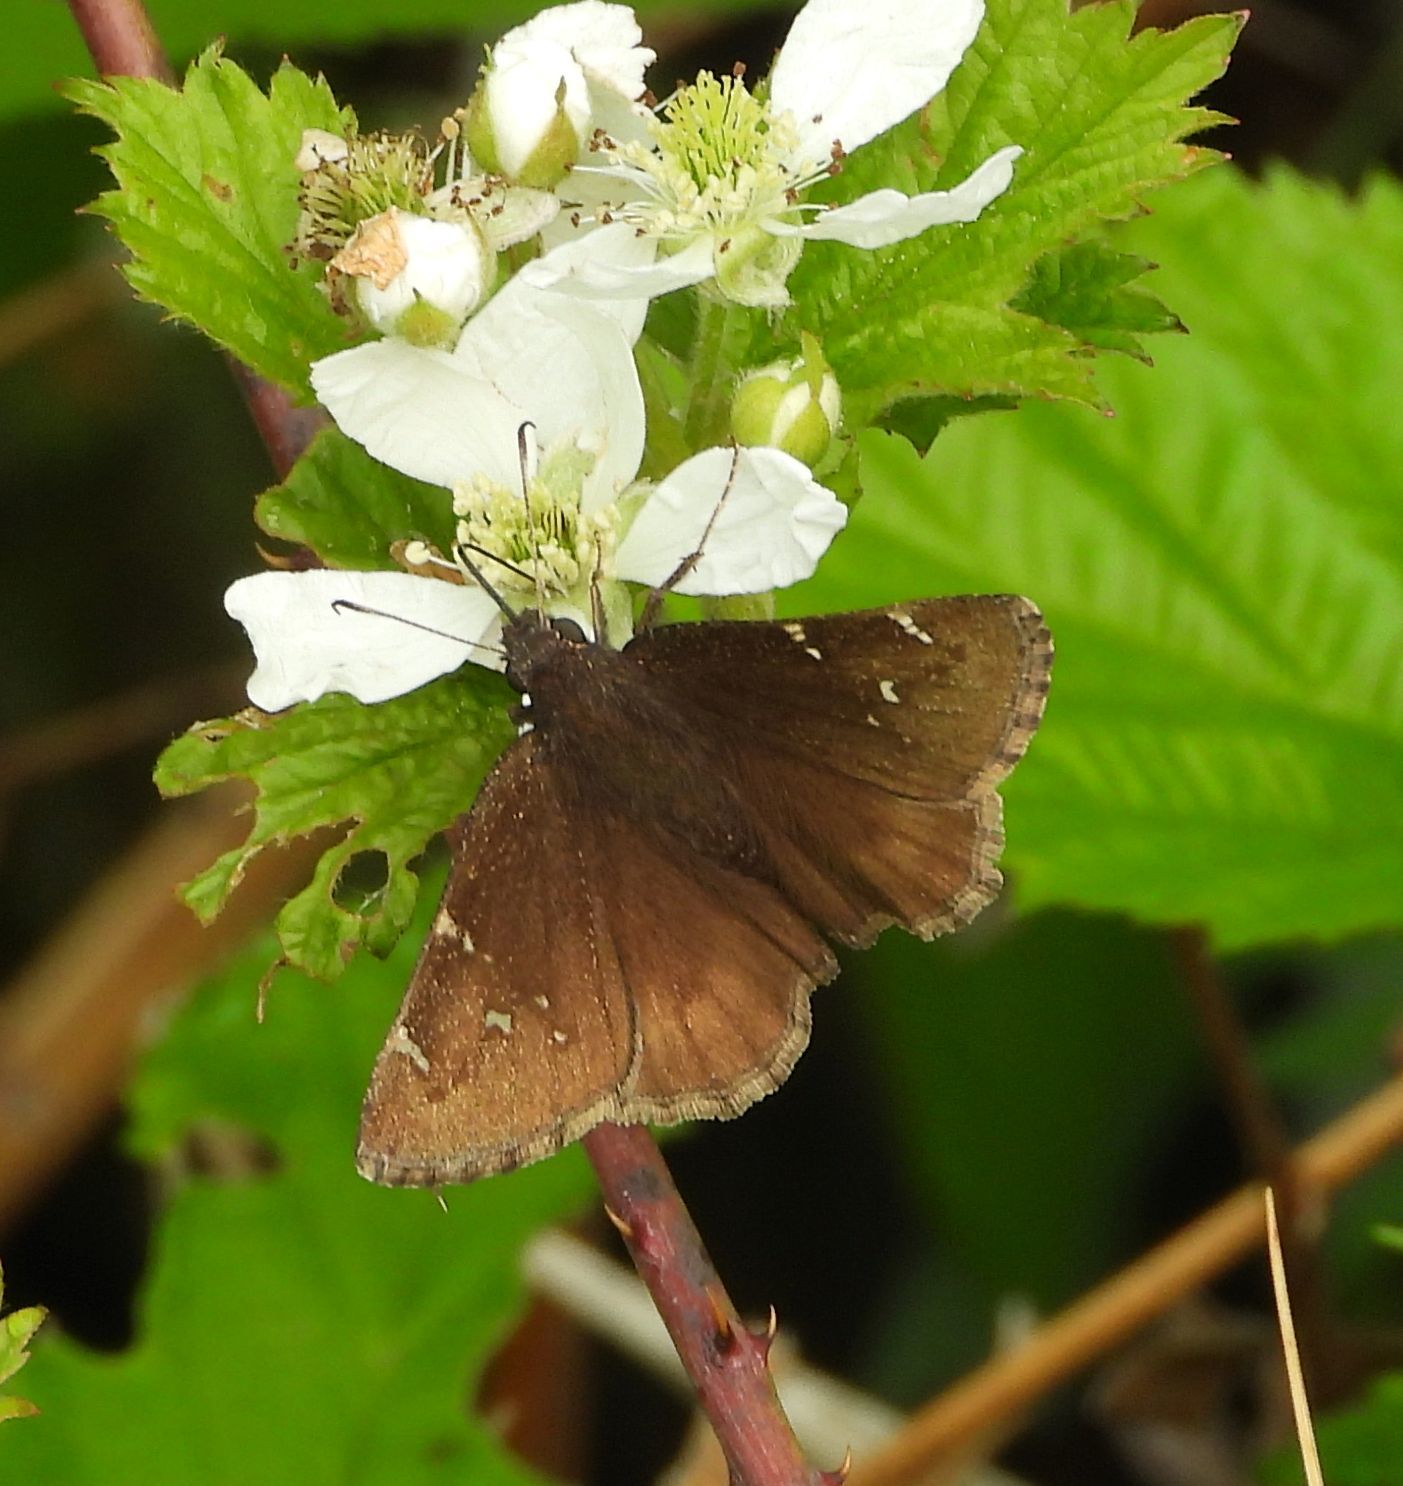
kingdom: Animalia
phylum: Arthropoda
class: Insecta
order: Lepidoptera
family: Hesperiidae
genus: Thorybes
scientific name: Thorybes pylades
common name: Northern cloudywing
